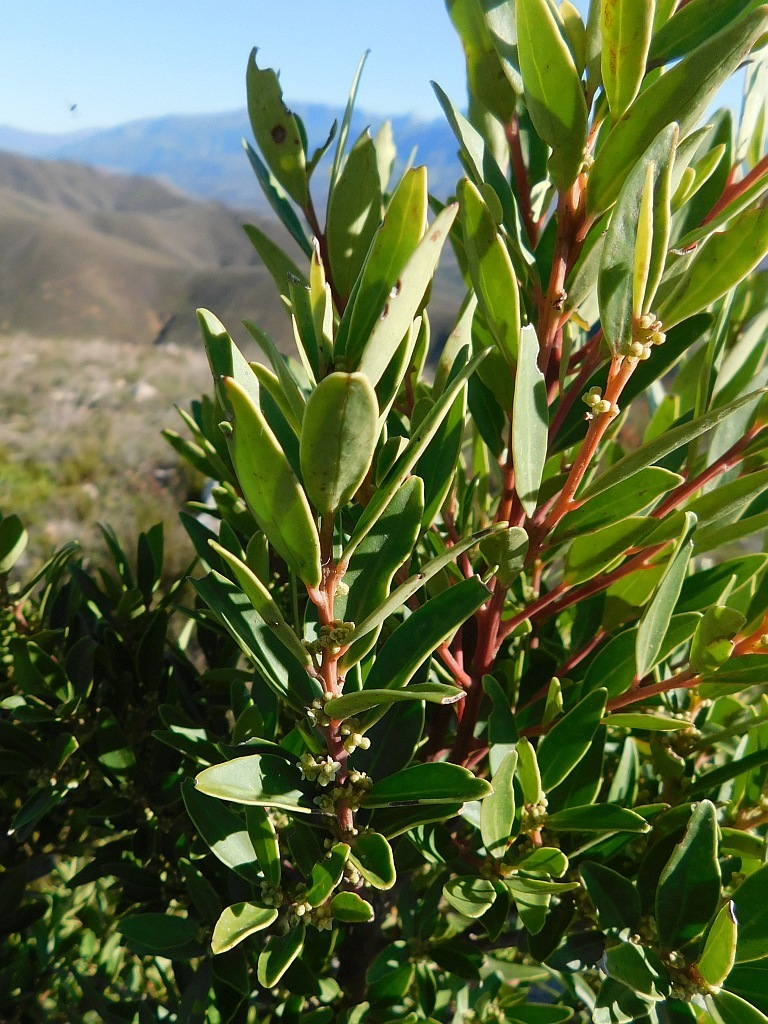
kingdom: Plantae
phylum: Tracheophyta
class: Magnoliopsida
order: Celastrales
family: Celastraceae
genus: Gymnosporia
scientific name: Gymnosporia laurina
